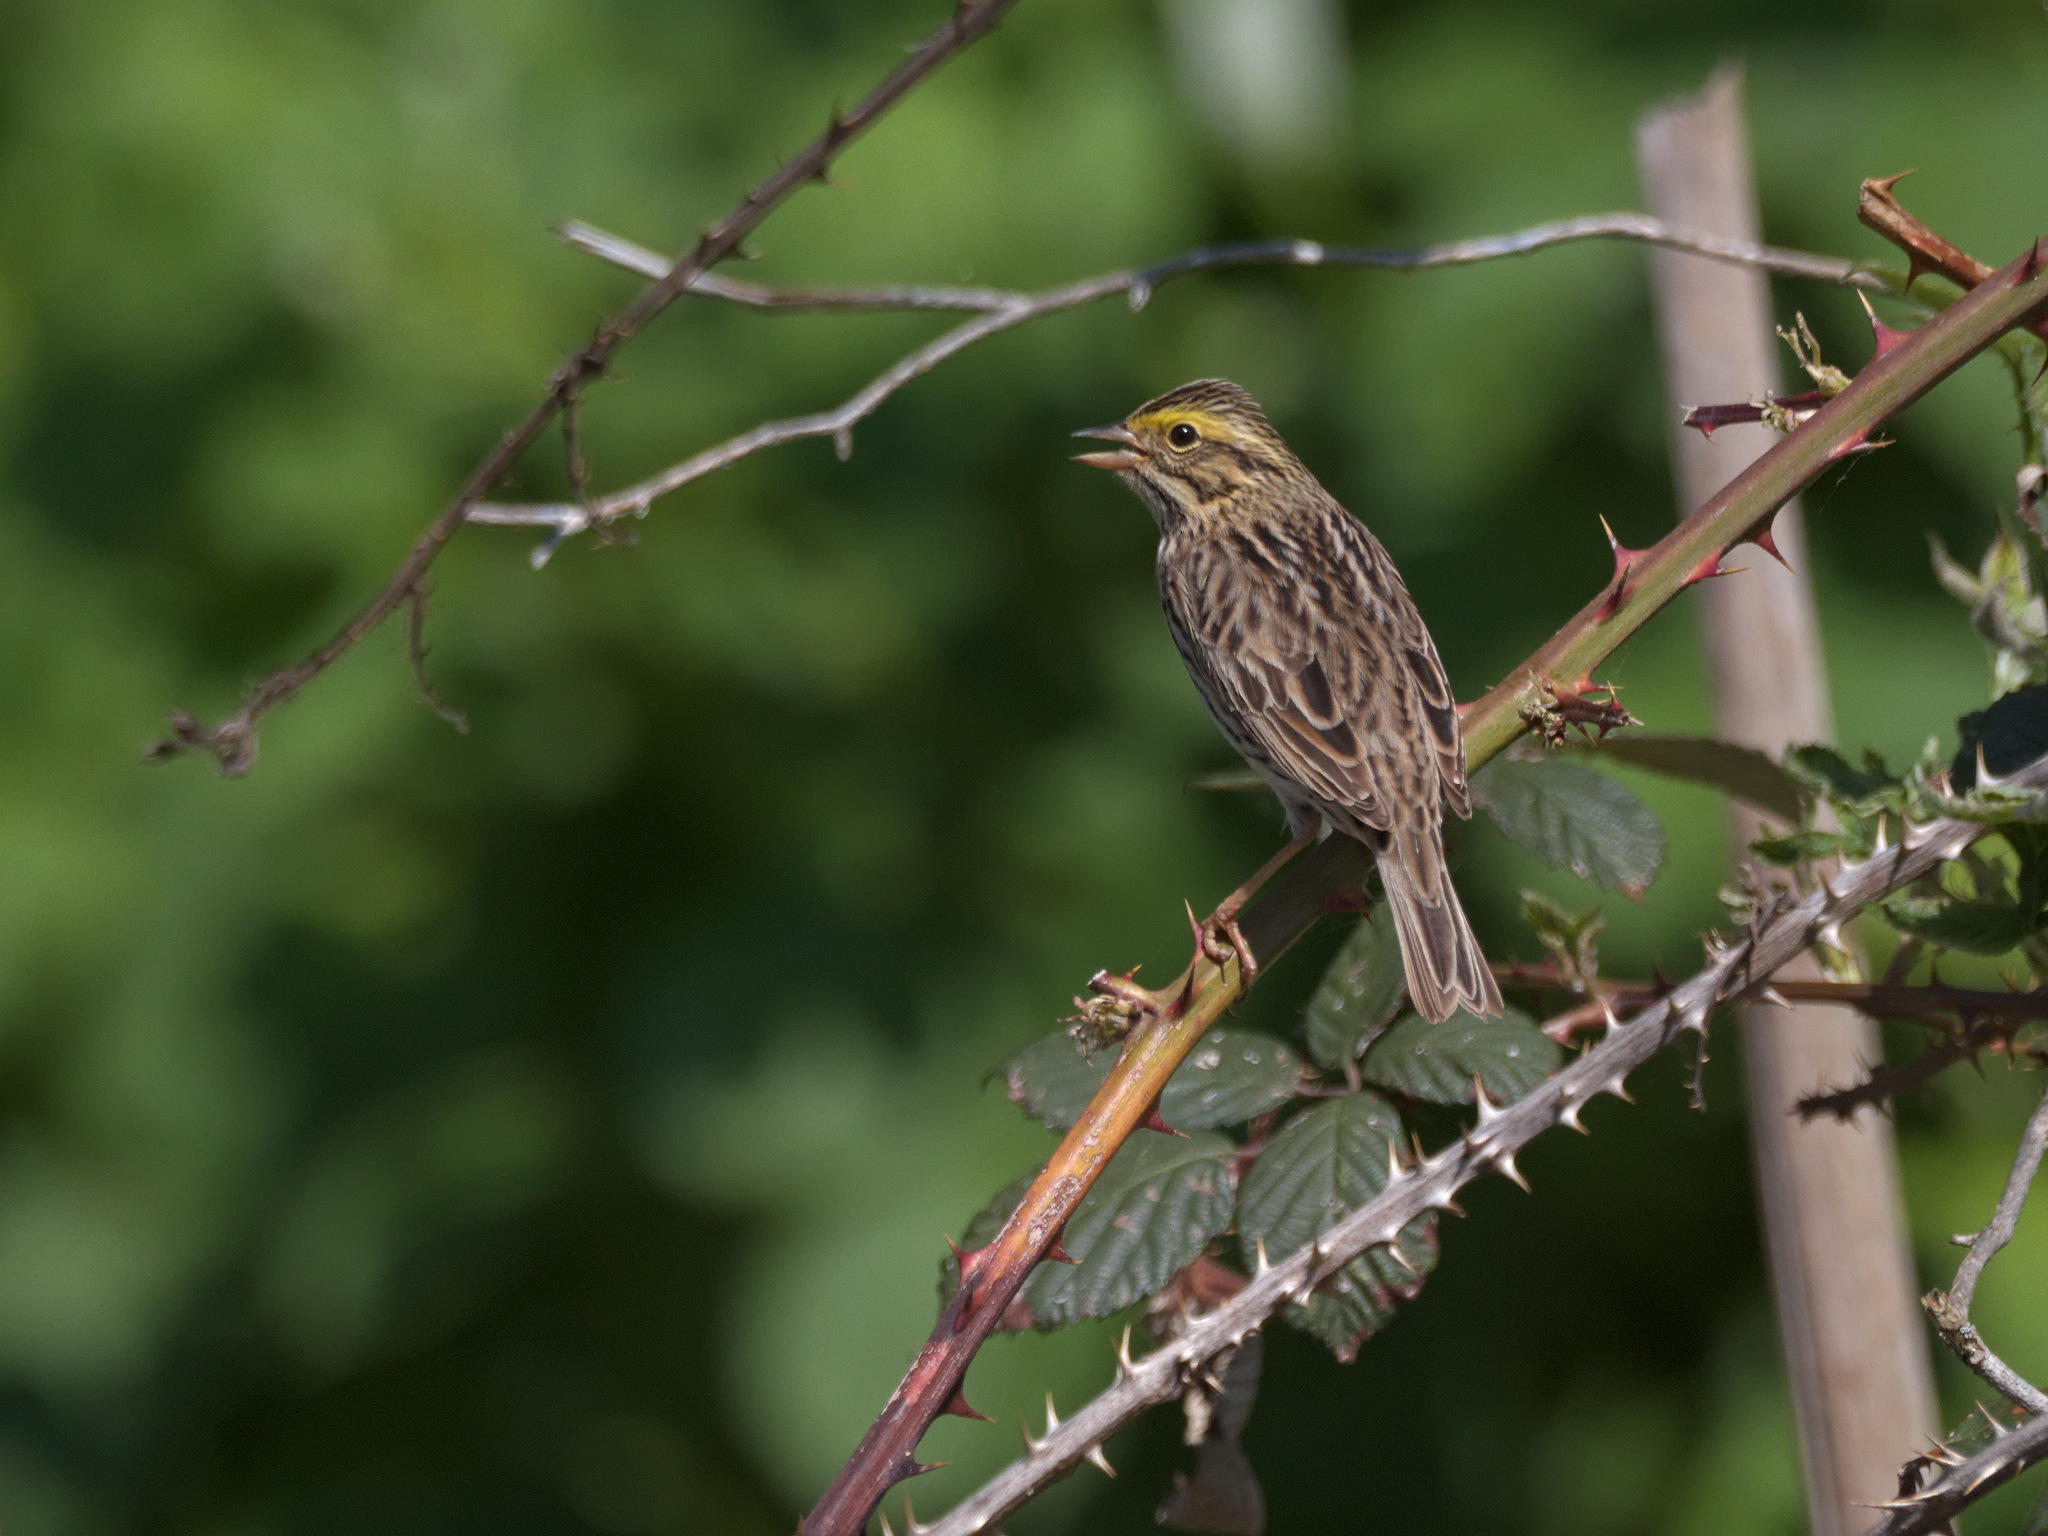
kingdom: Animalia
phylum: Chordata
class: Aves
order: Passeriformes
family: Passerellidae
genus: Passerculus
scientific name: Passerculus sandwichensis
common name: Savannah sparrow
